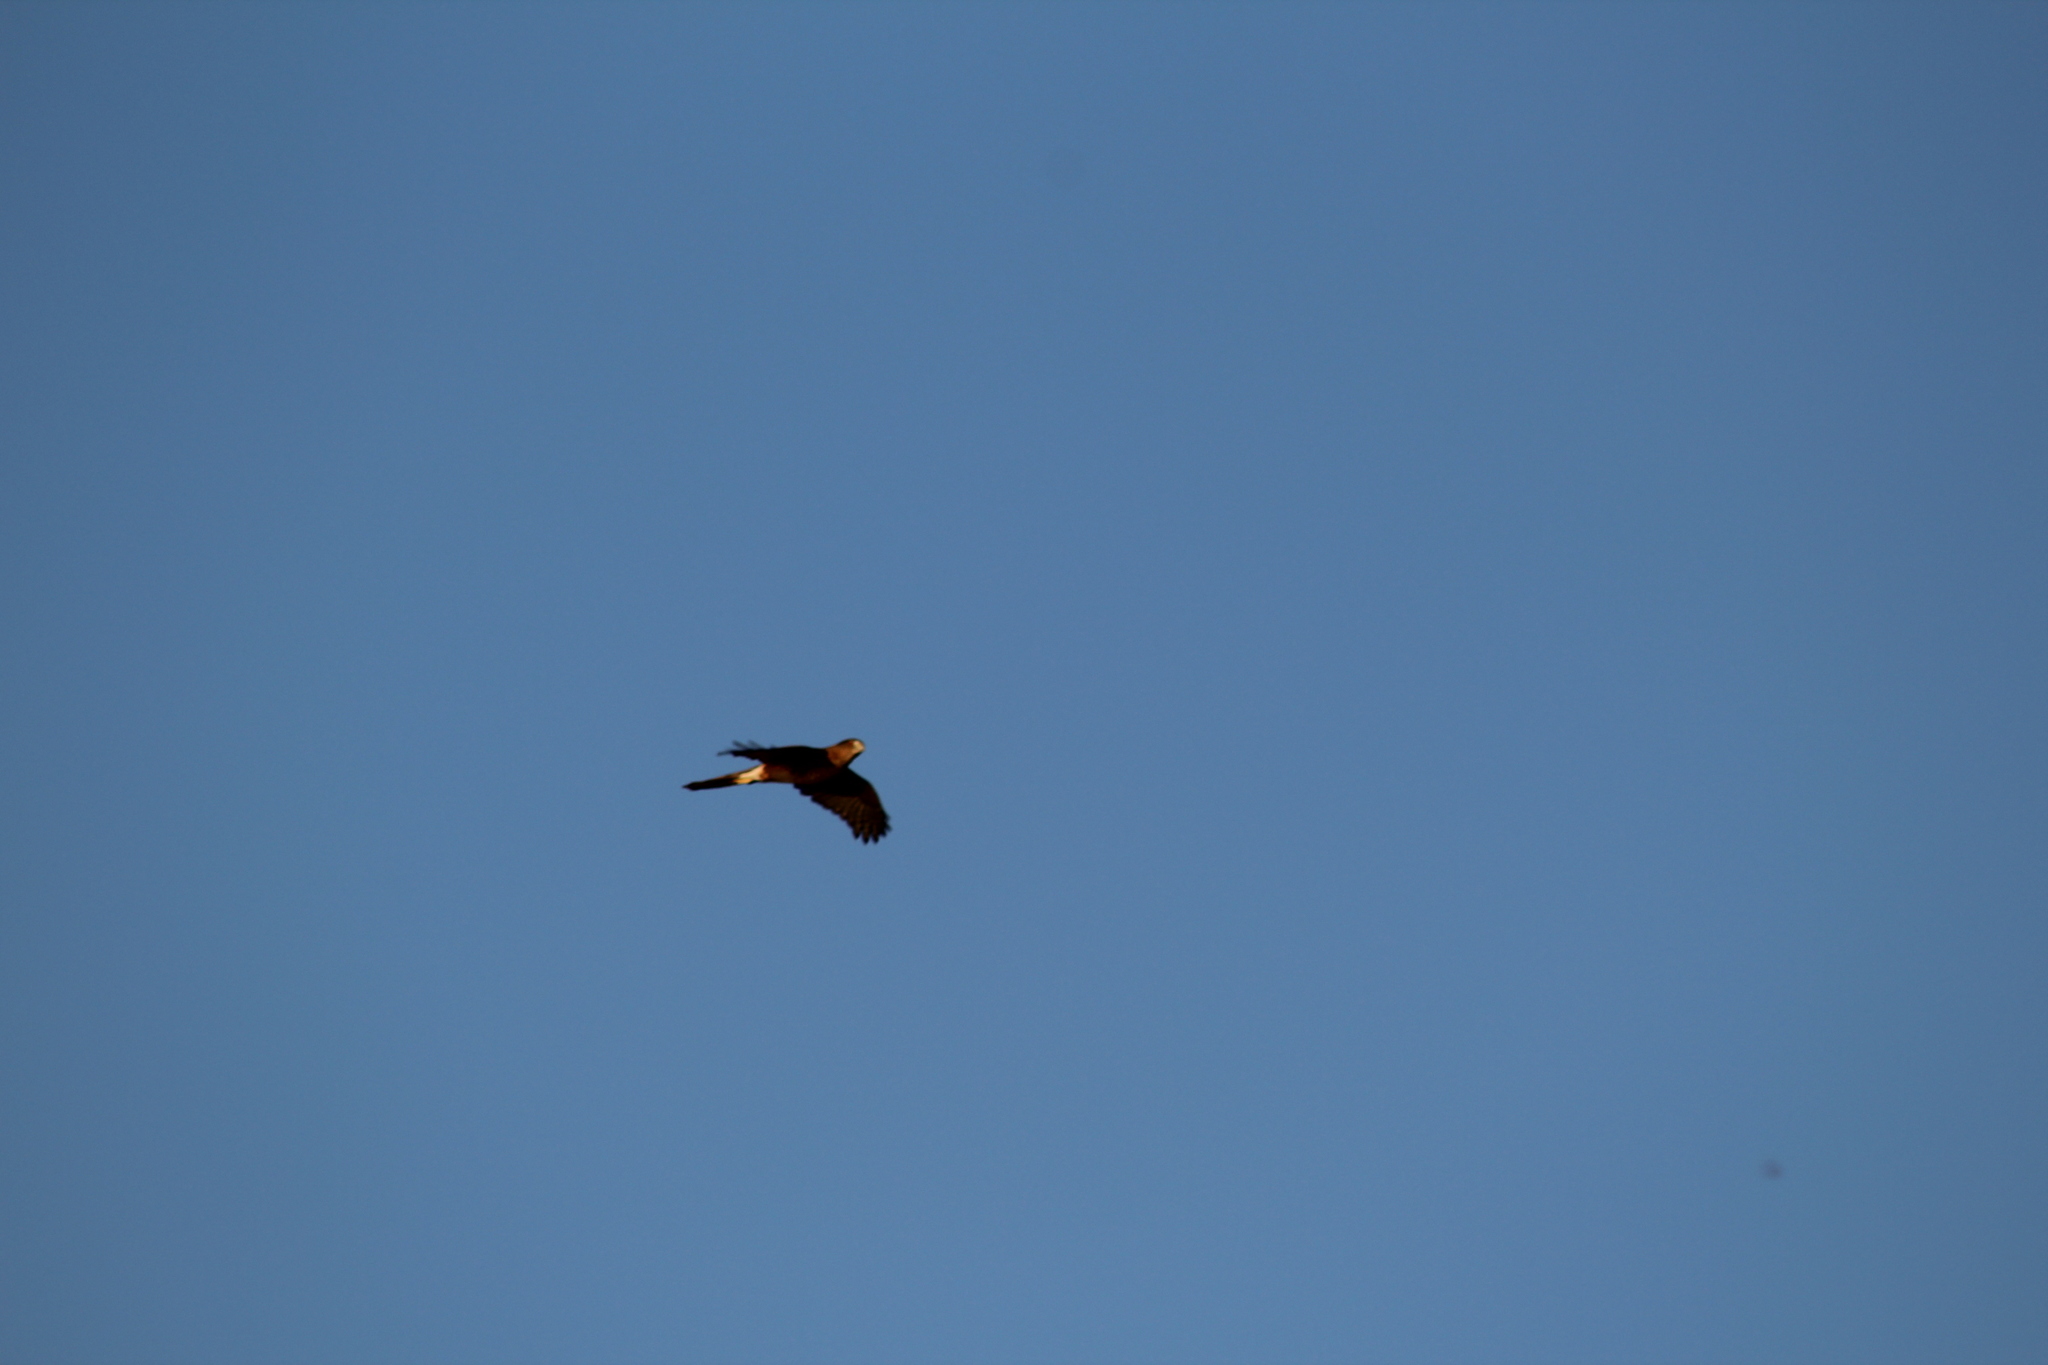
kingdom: Animalia
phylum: Chordata
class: Aves
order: Accipitriformes
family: Accipitridae
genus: Accipiter
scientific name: Accipiter cooperii
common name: Cooper's hawk
